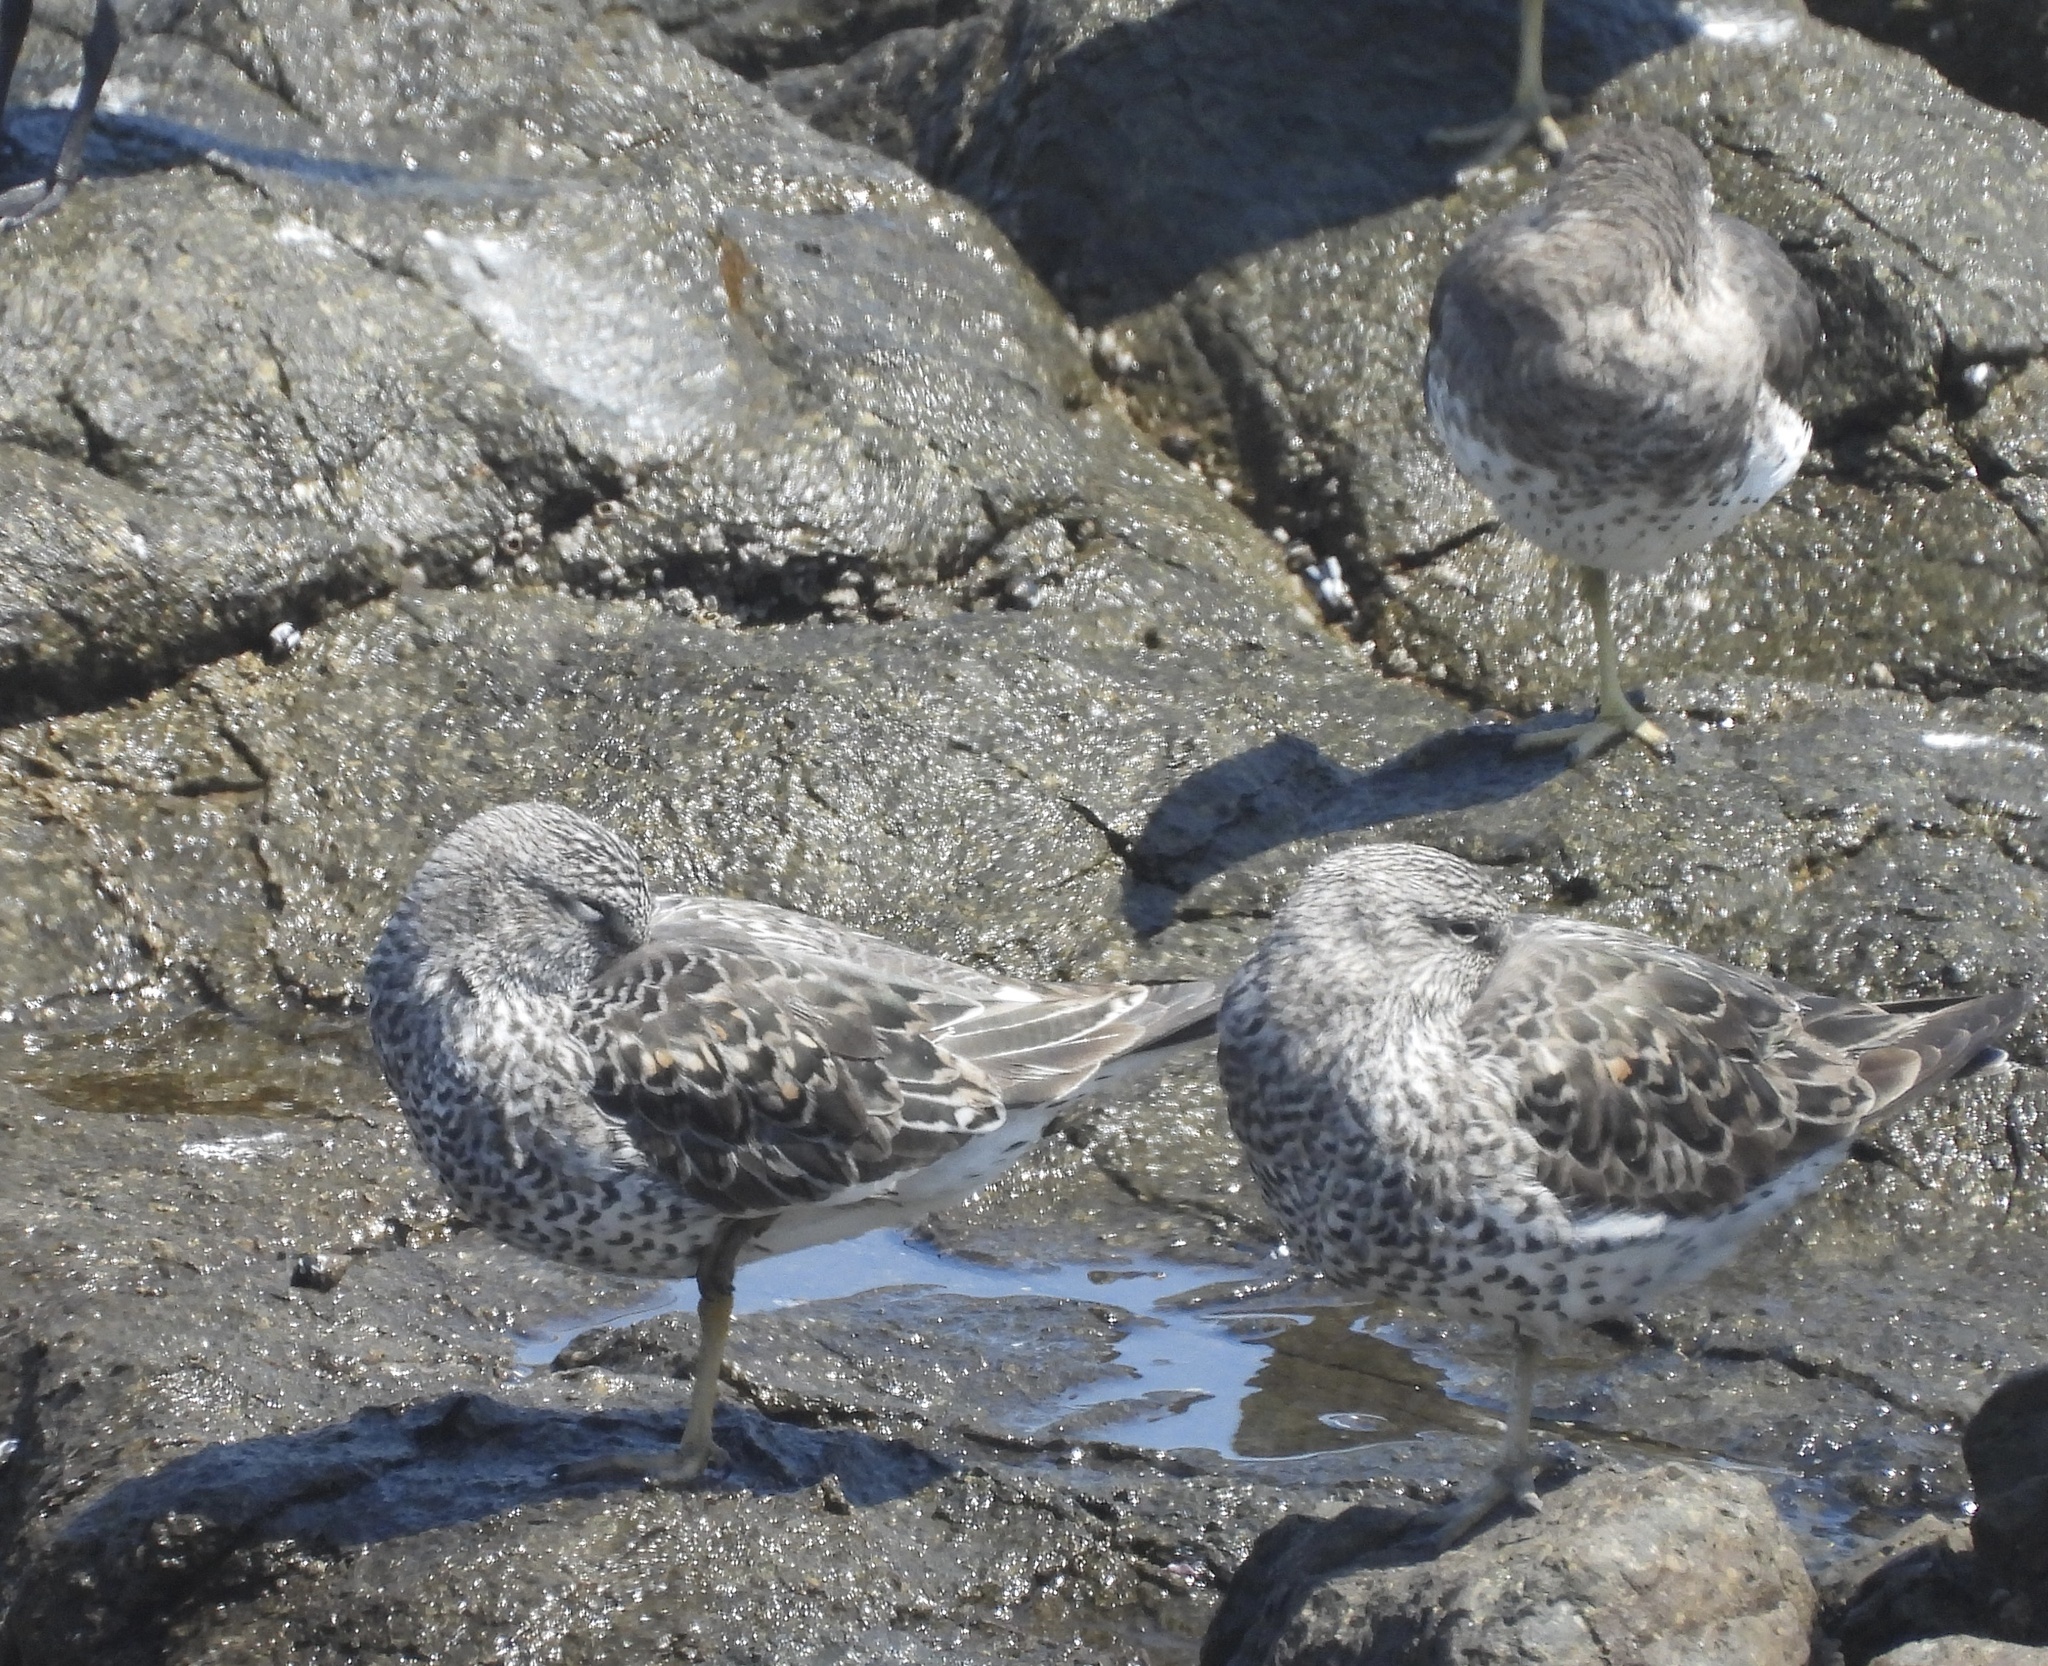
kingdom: Animalia
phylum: Chordata
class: Aves
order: Charadriiformes
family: Scolopacidae
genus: Calidris
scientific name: Calidris virgata
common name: Surfbird
